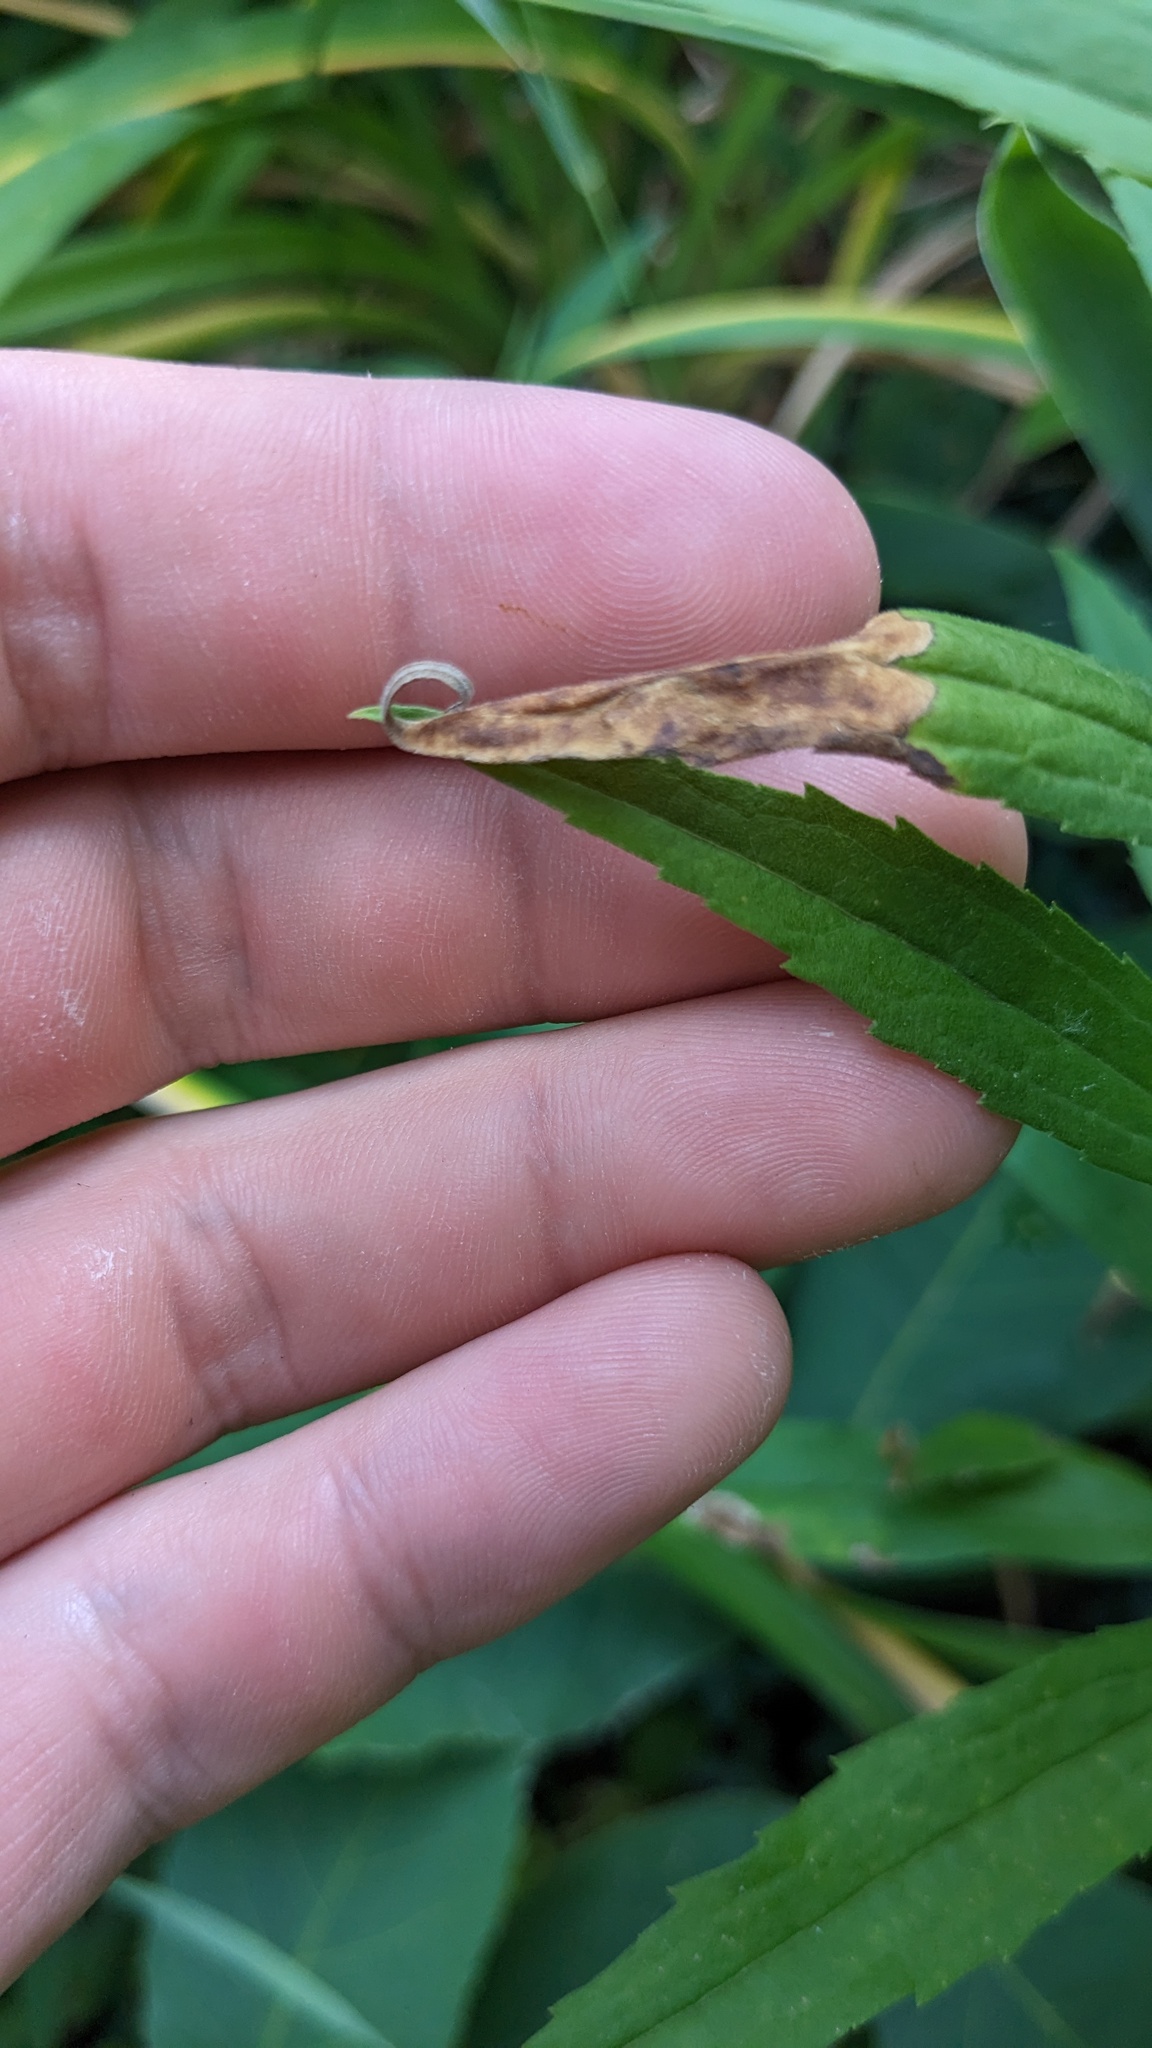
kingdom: Animalia
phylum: Arthropoda
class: Insecta
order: Diptera
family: Agromyzidae
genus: Nemorimyza
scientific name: Nemorimyza posticata
